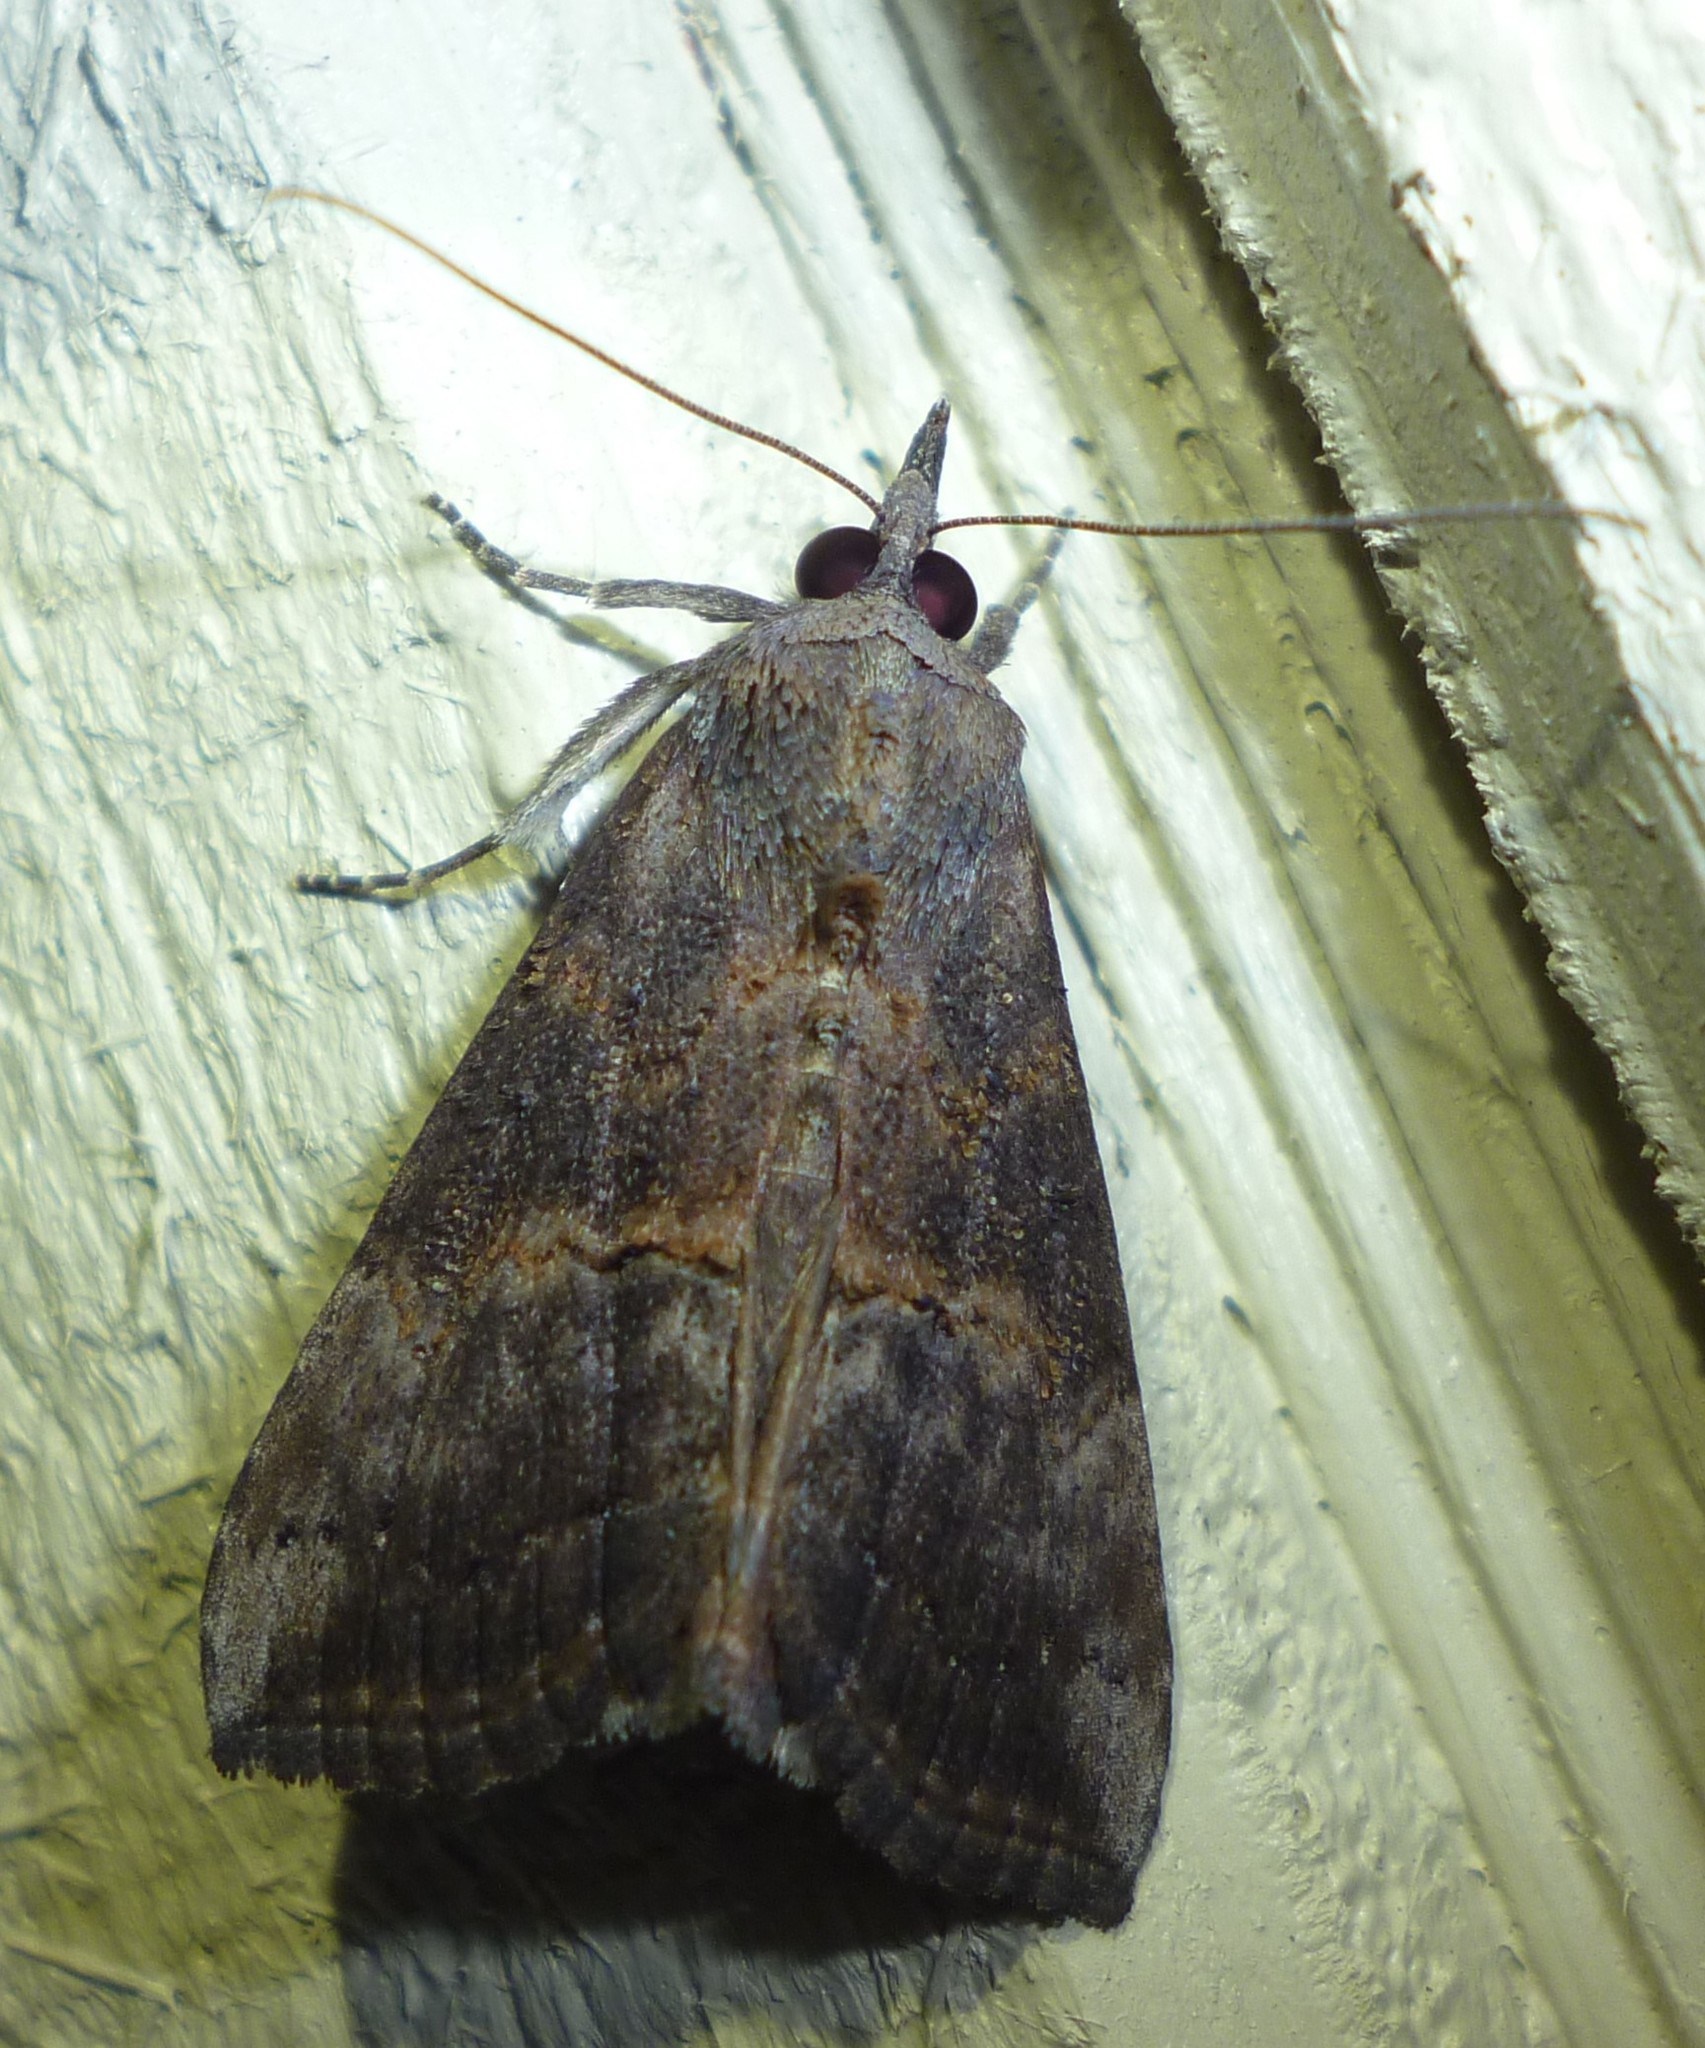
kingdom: Animalia
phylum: Arthropoda
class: Insecta
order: Lepidoptera
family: Erebidae
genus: Hypena
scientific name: Hypena scabra
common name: Green cloverworm
